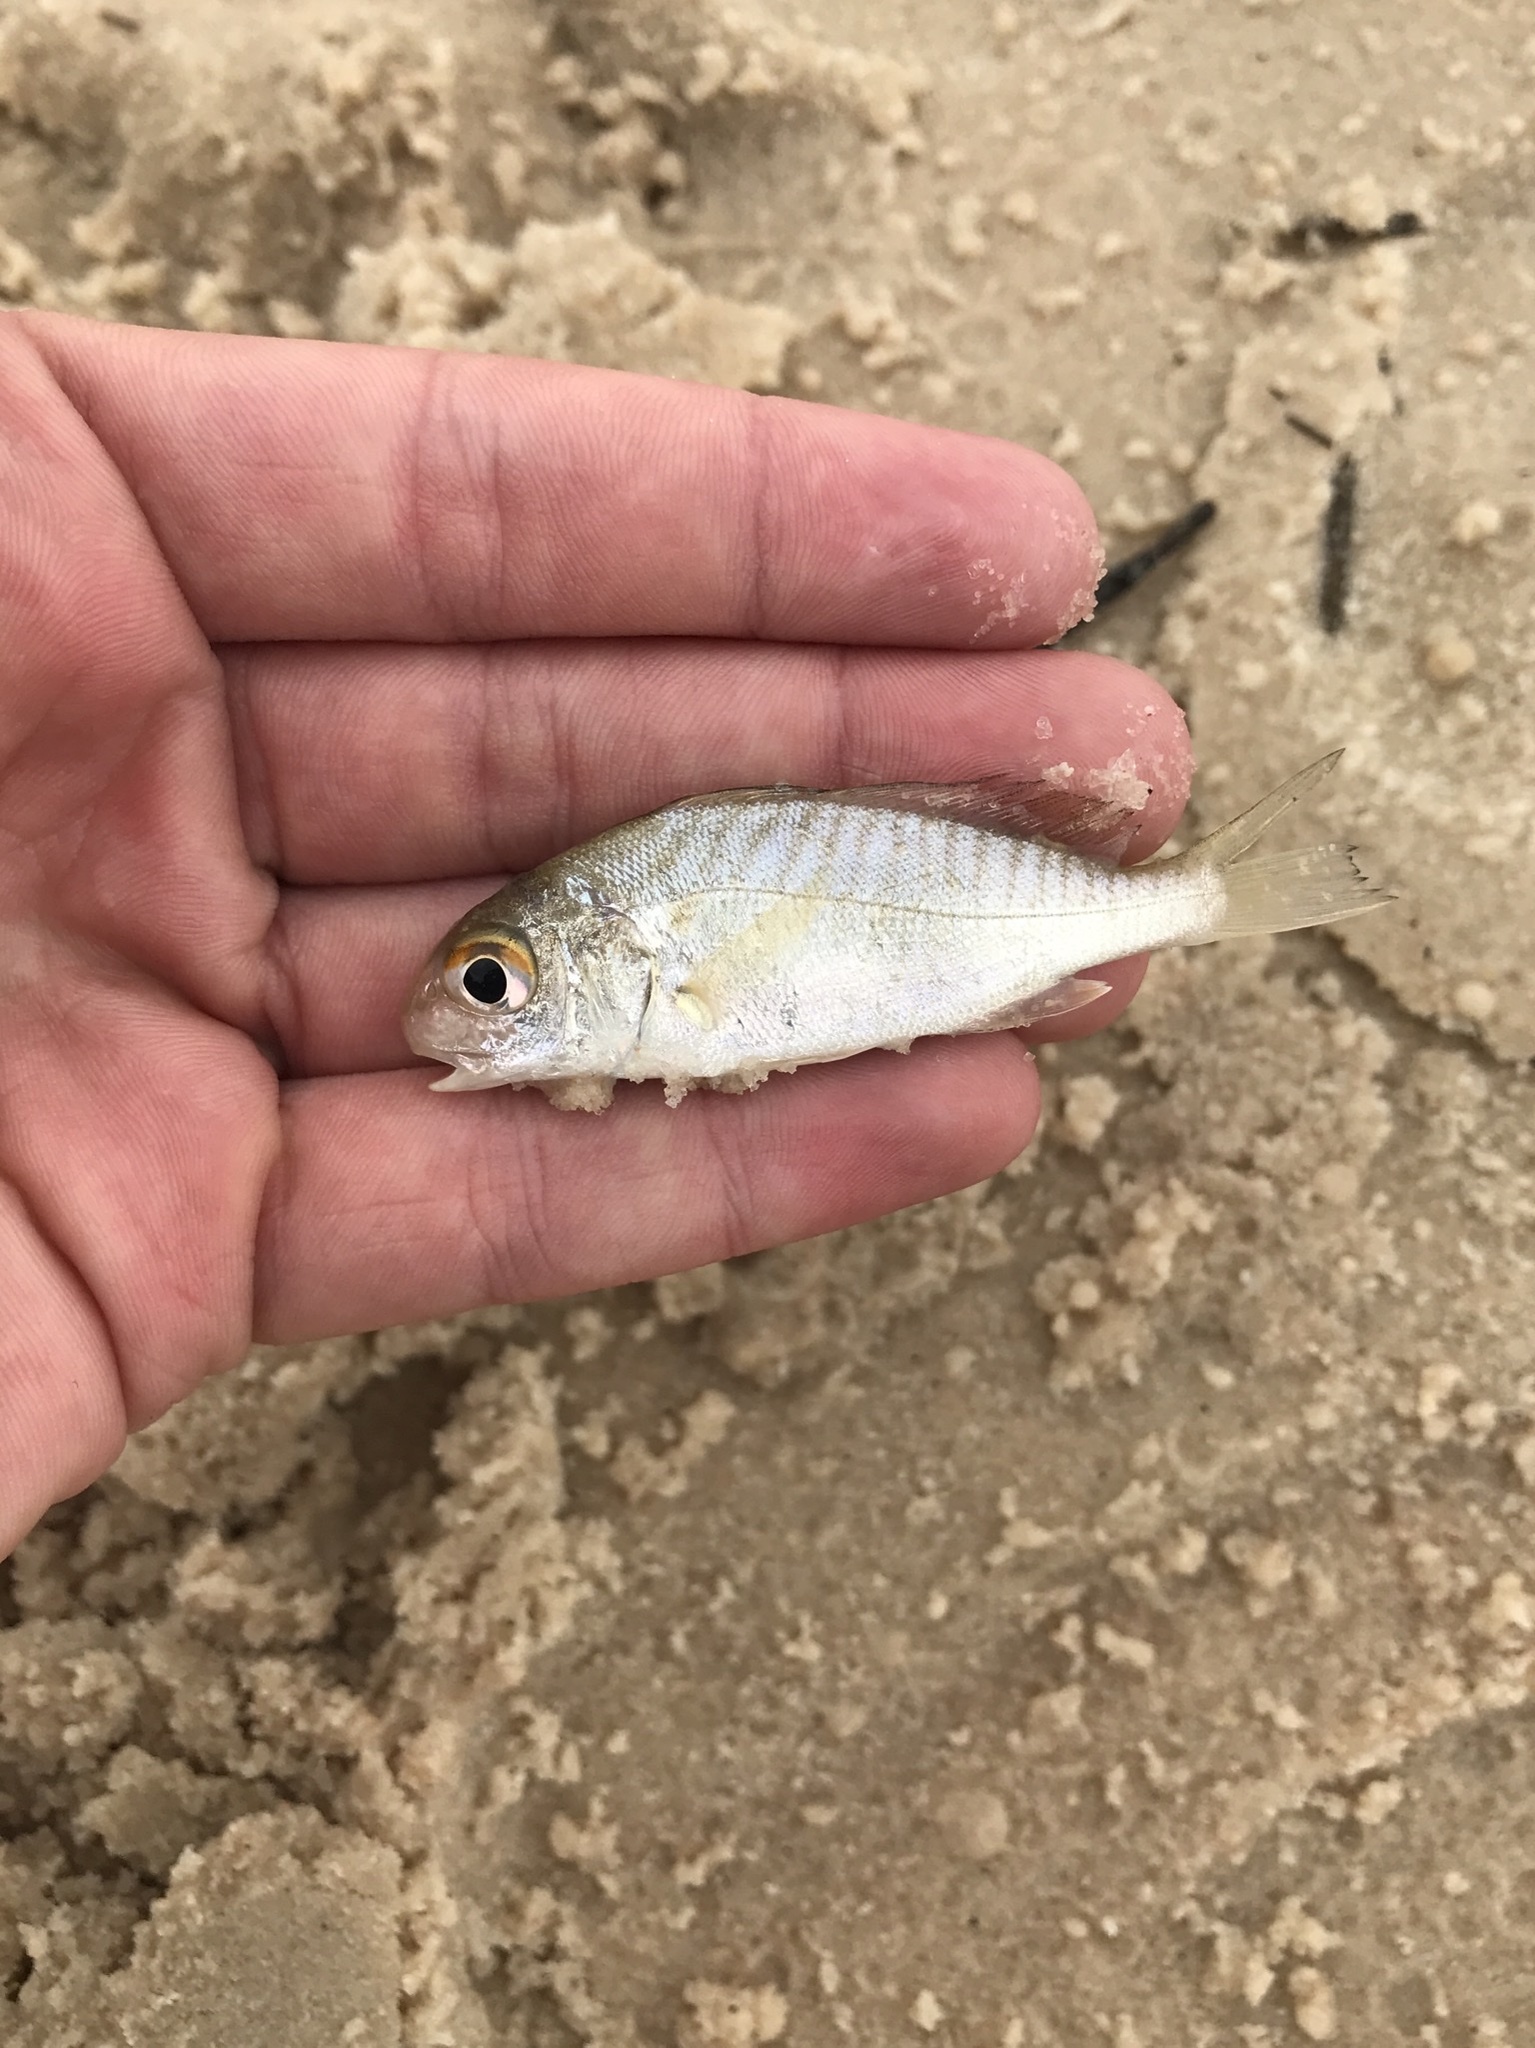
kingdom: Animalia
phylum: Chordata
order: Perciformes
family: Sciaenidae
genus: Leiostomus
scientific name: Leiostomus xanthurus
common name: Spot
